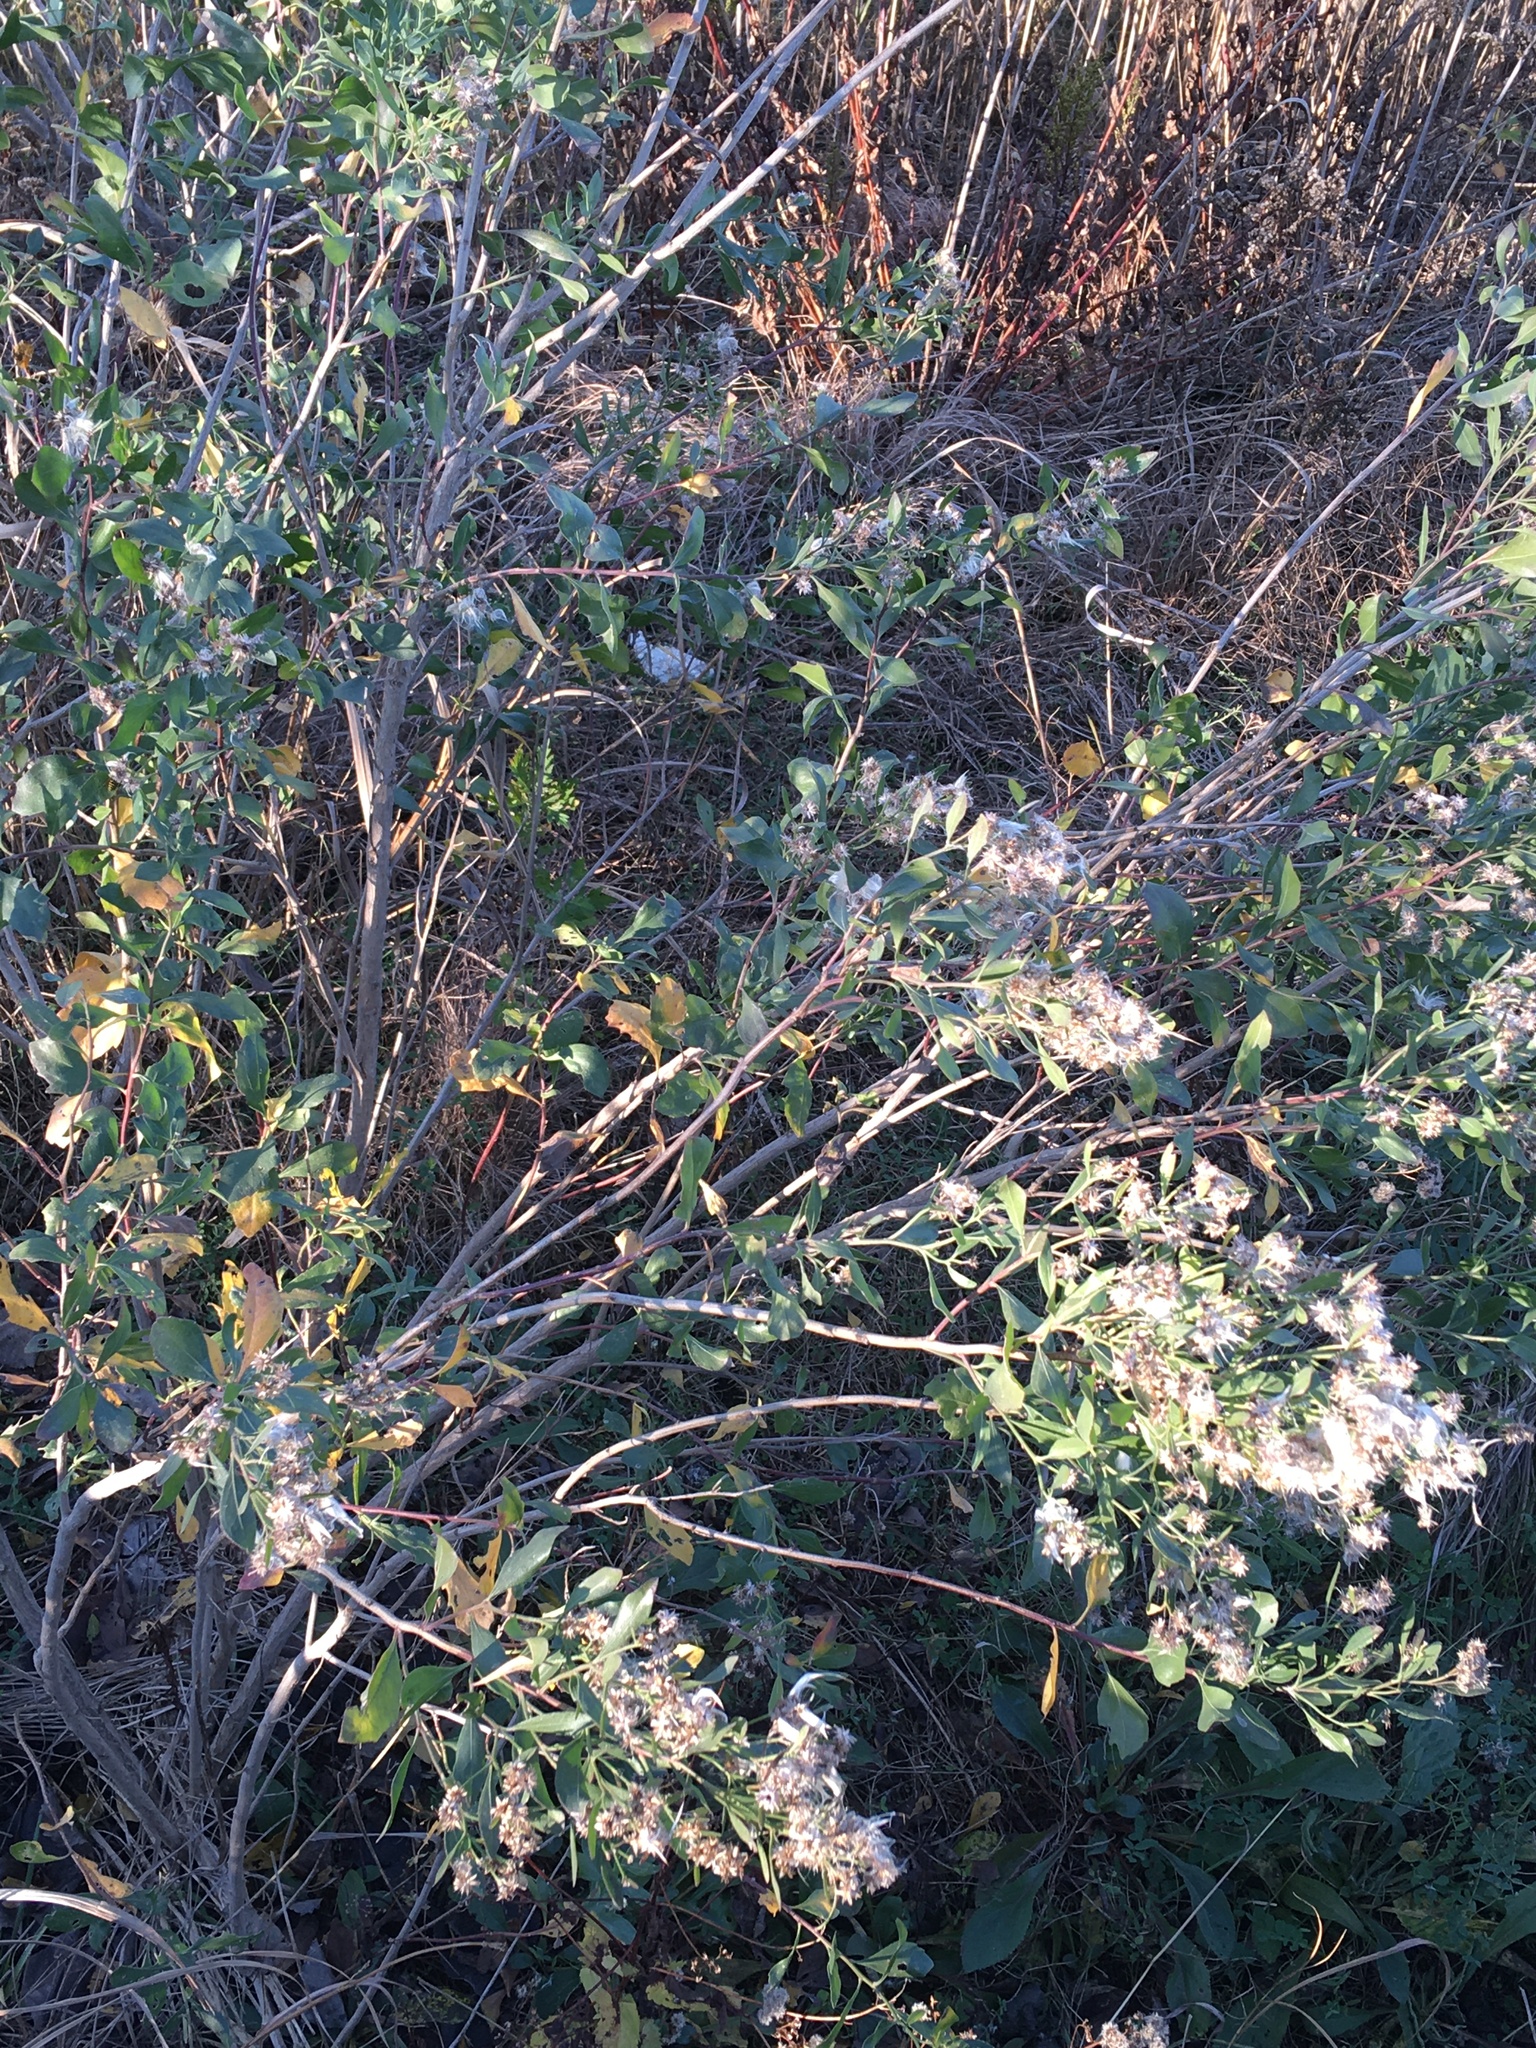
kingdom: Plantae
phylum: Tracheophyta
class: Magnoliopsida
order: Asterales
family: Asteraceae
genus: Baccharis
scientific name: Baccharis halimifolia
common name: Eastern baccharis
